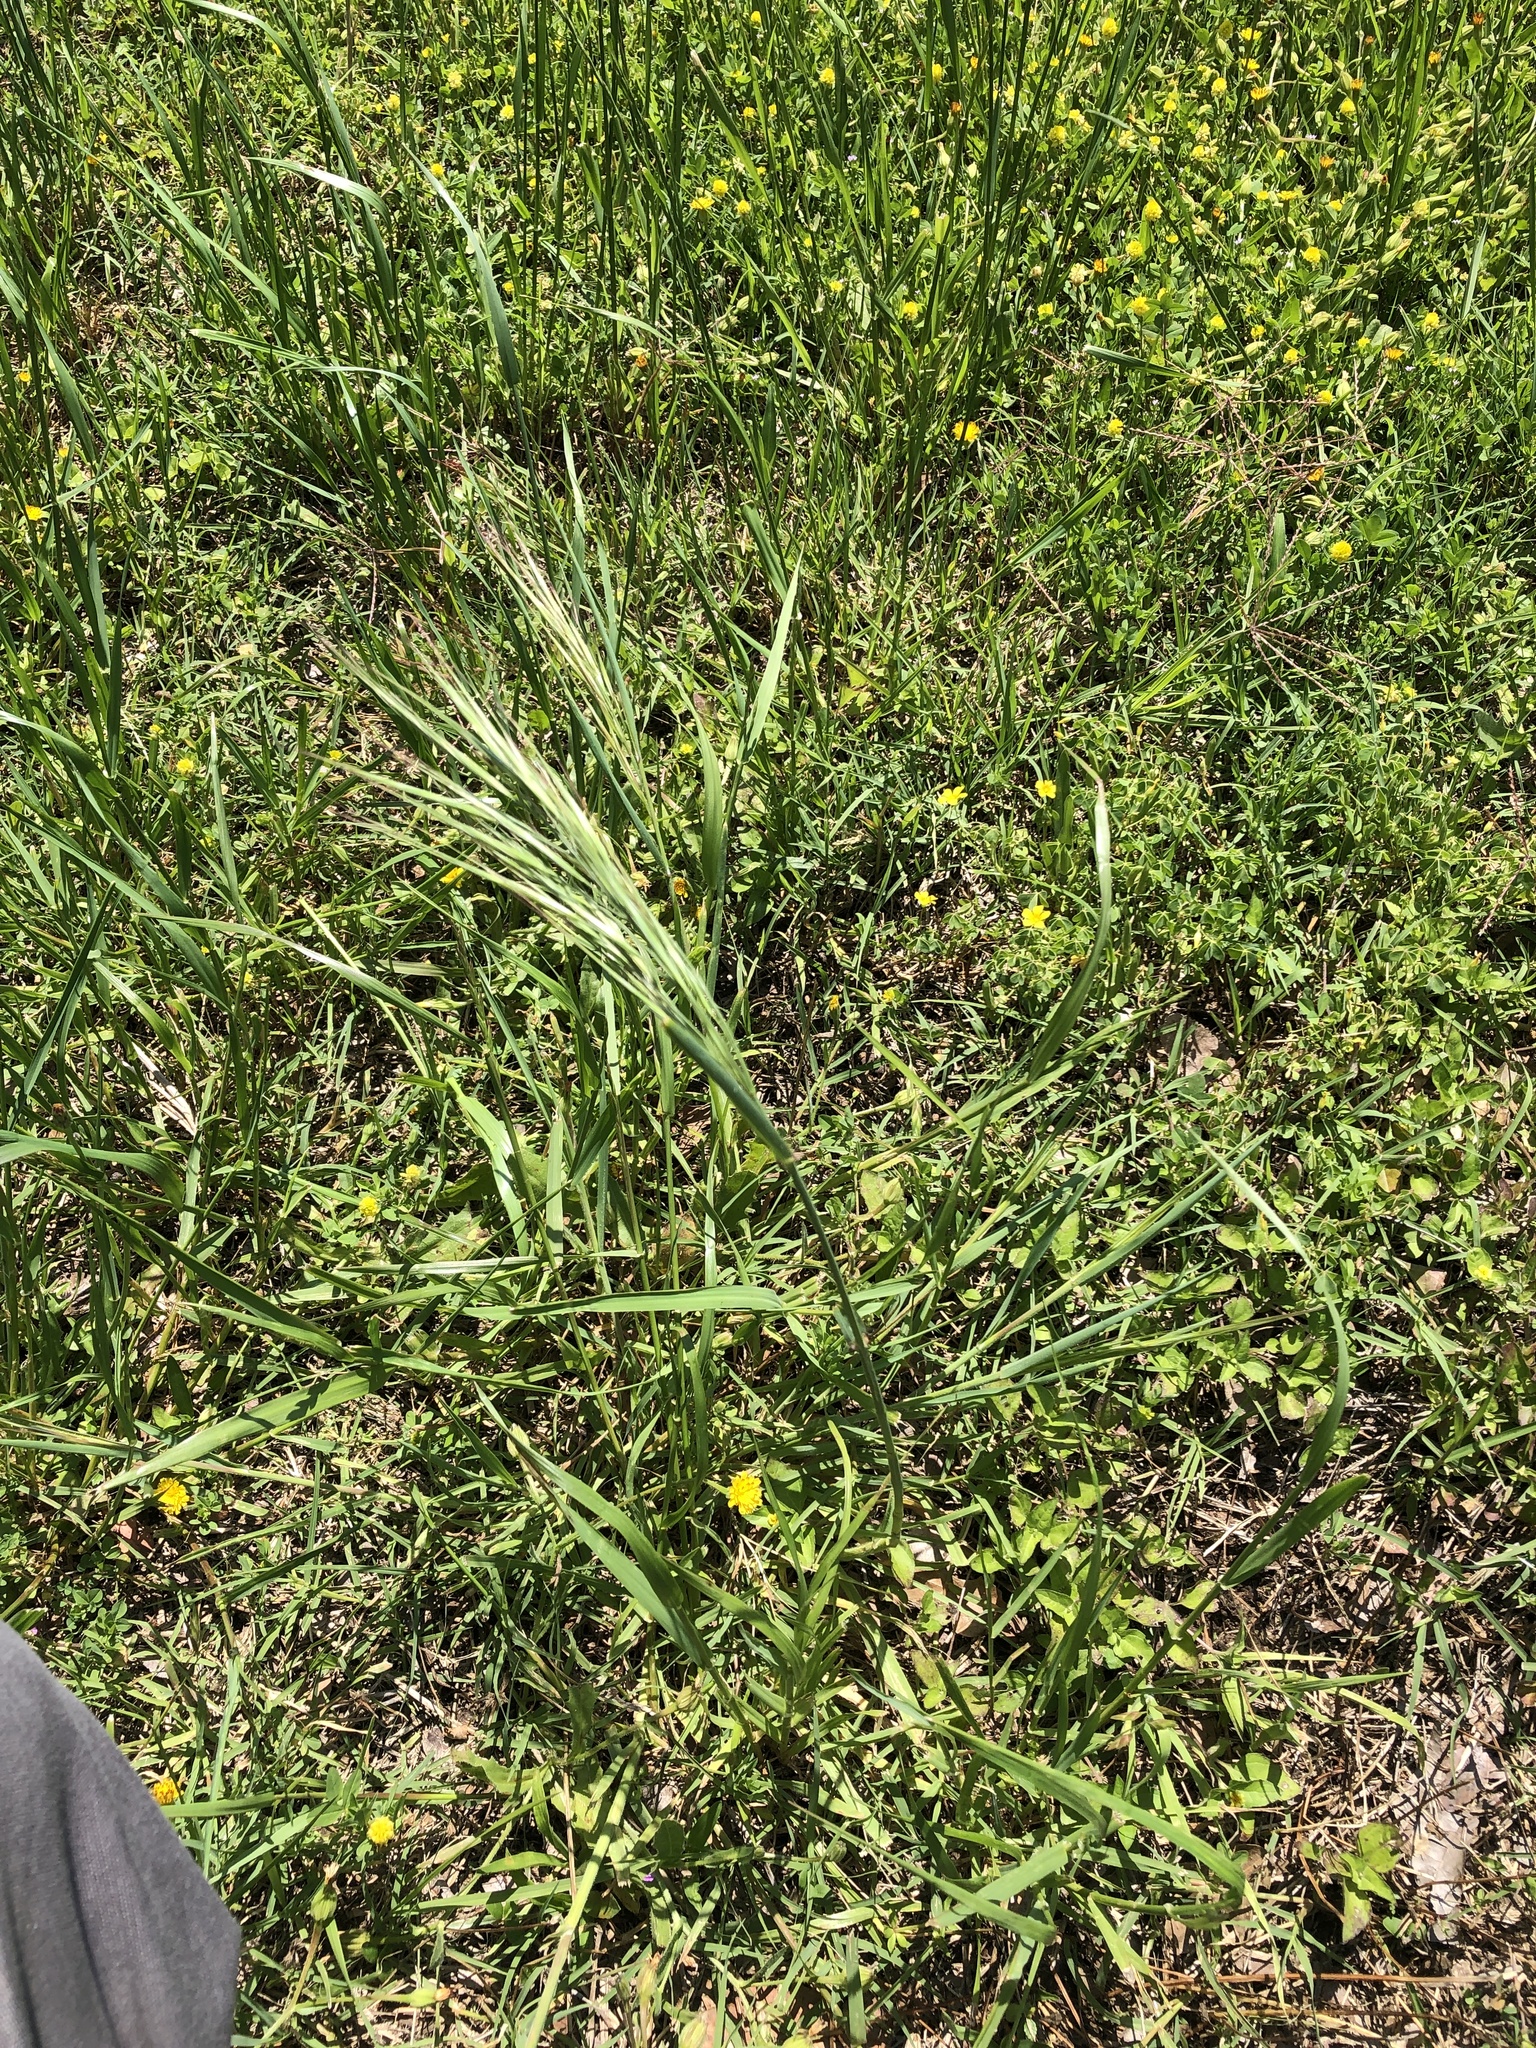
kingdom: Plantae
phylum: Tracheophyta
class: Liliopsida
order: Poales
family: Poaceae
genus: Bromus
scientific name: Bromus diandrus
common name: Ripgut brome
